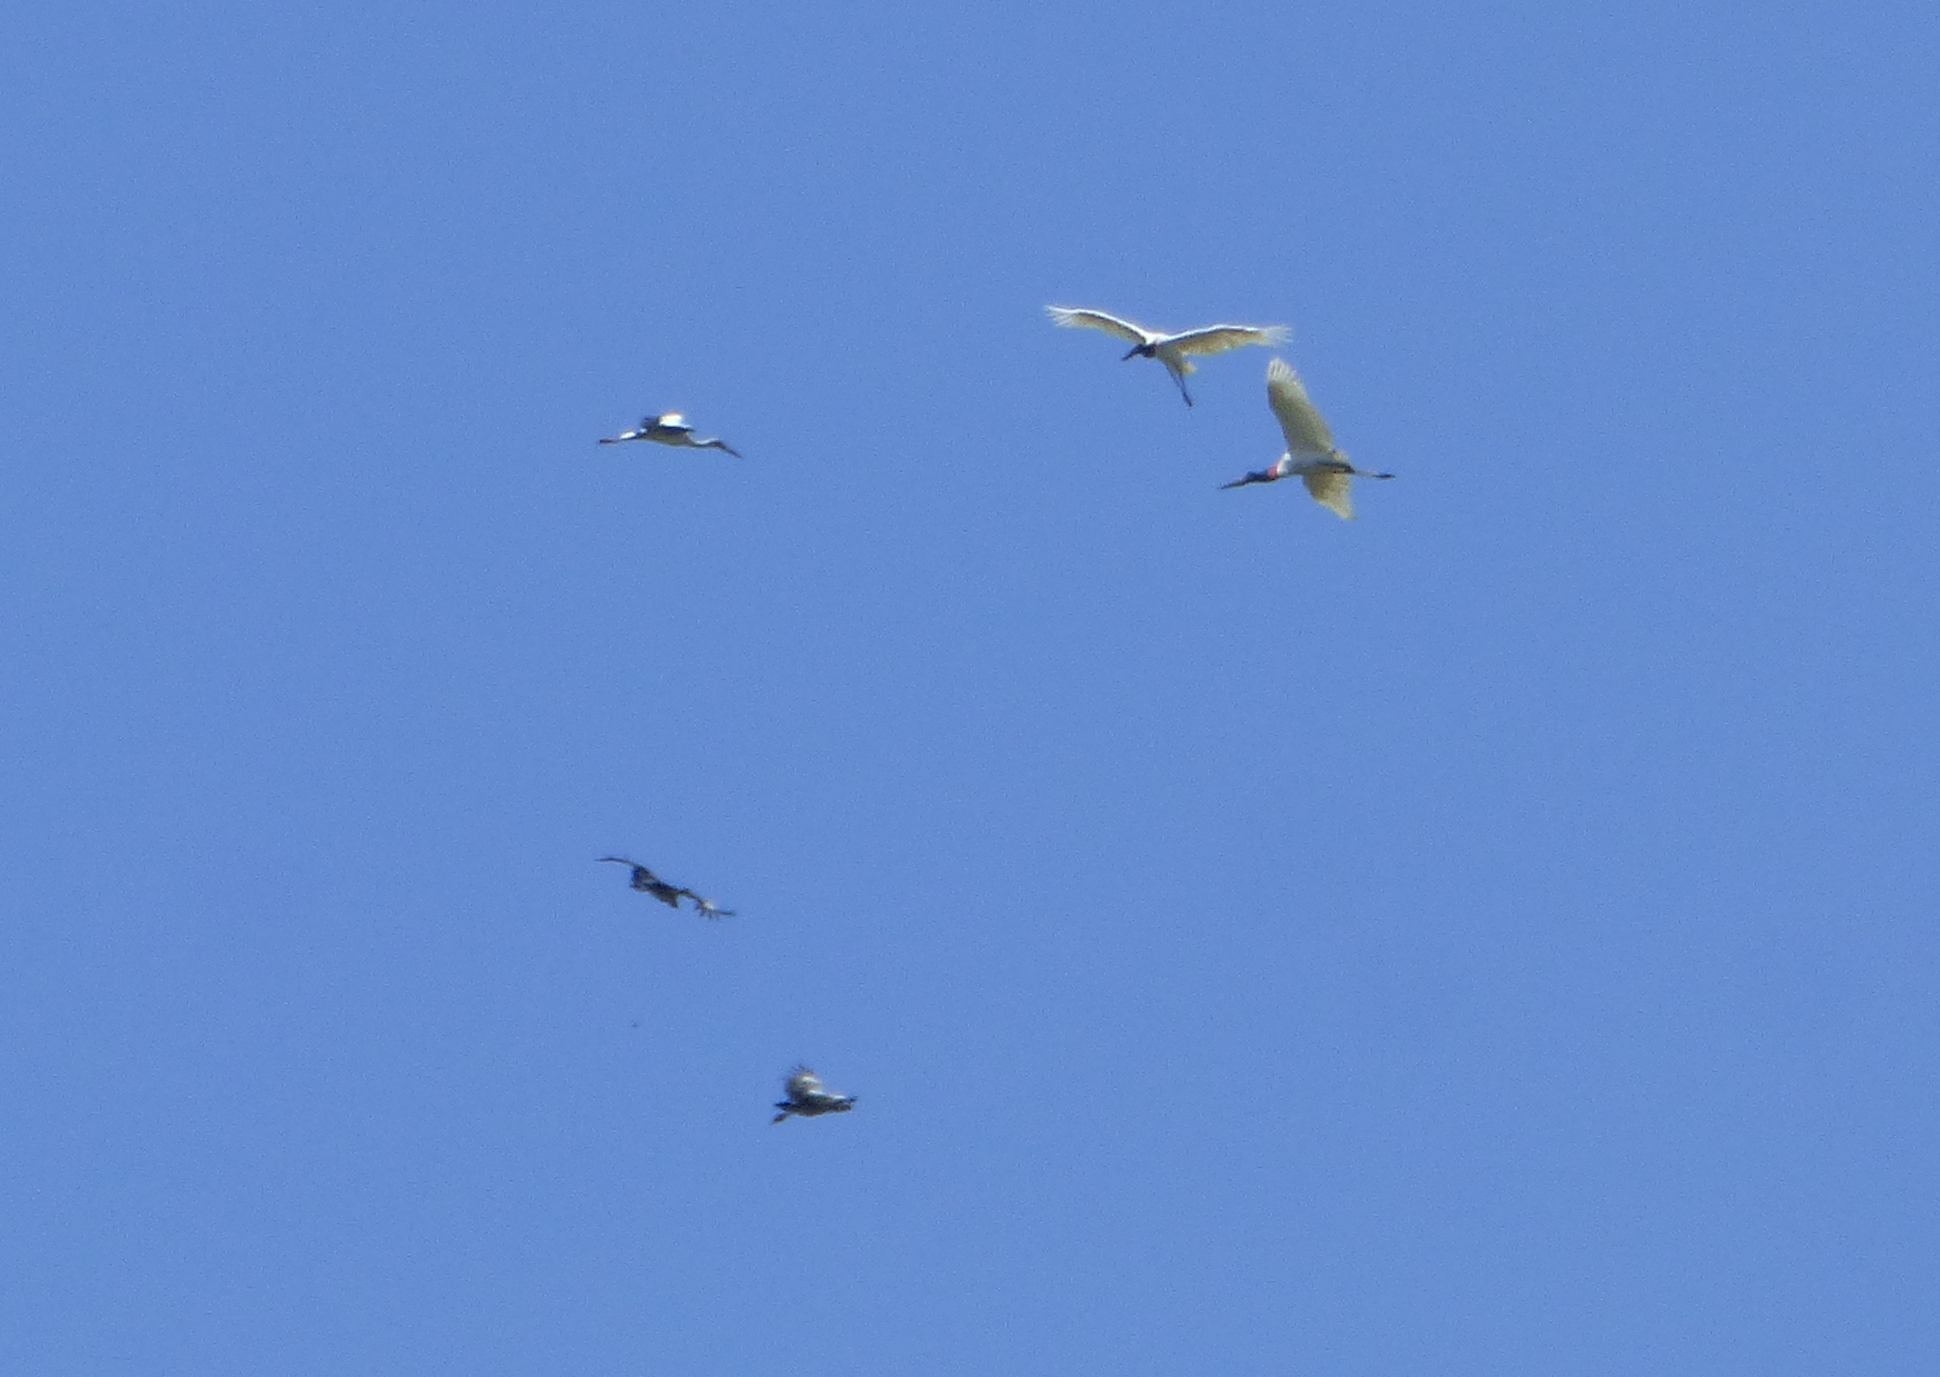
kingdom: Animalia
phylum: Chordata
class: Aves
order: Ciconiiformes
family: Ciconiidae
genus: Jabiru
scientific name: Jabiru mycteria
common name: Jabiru
